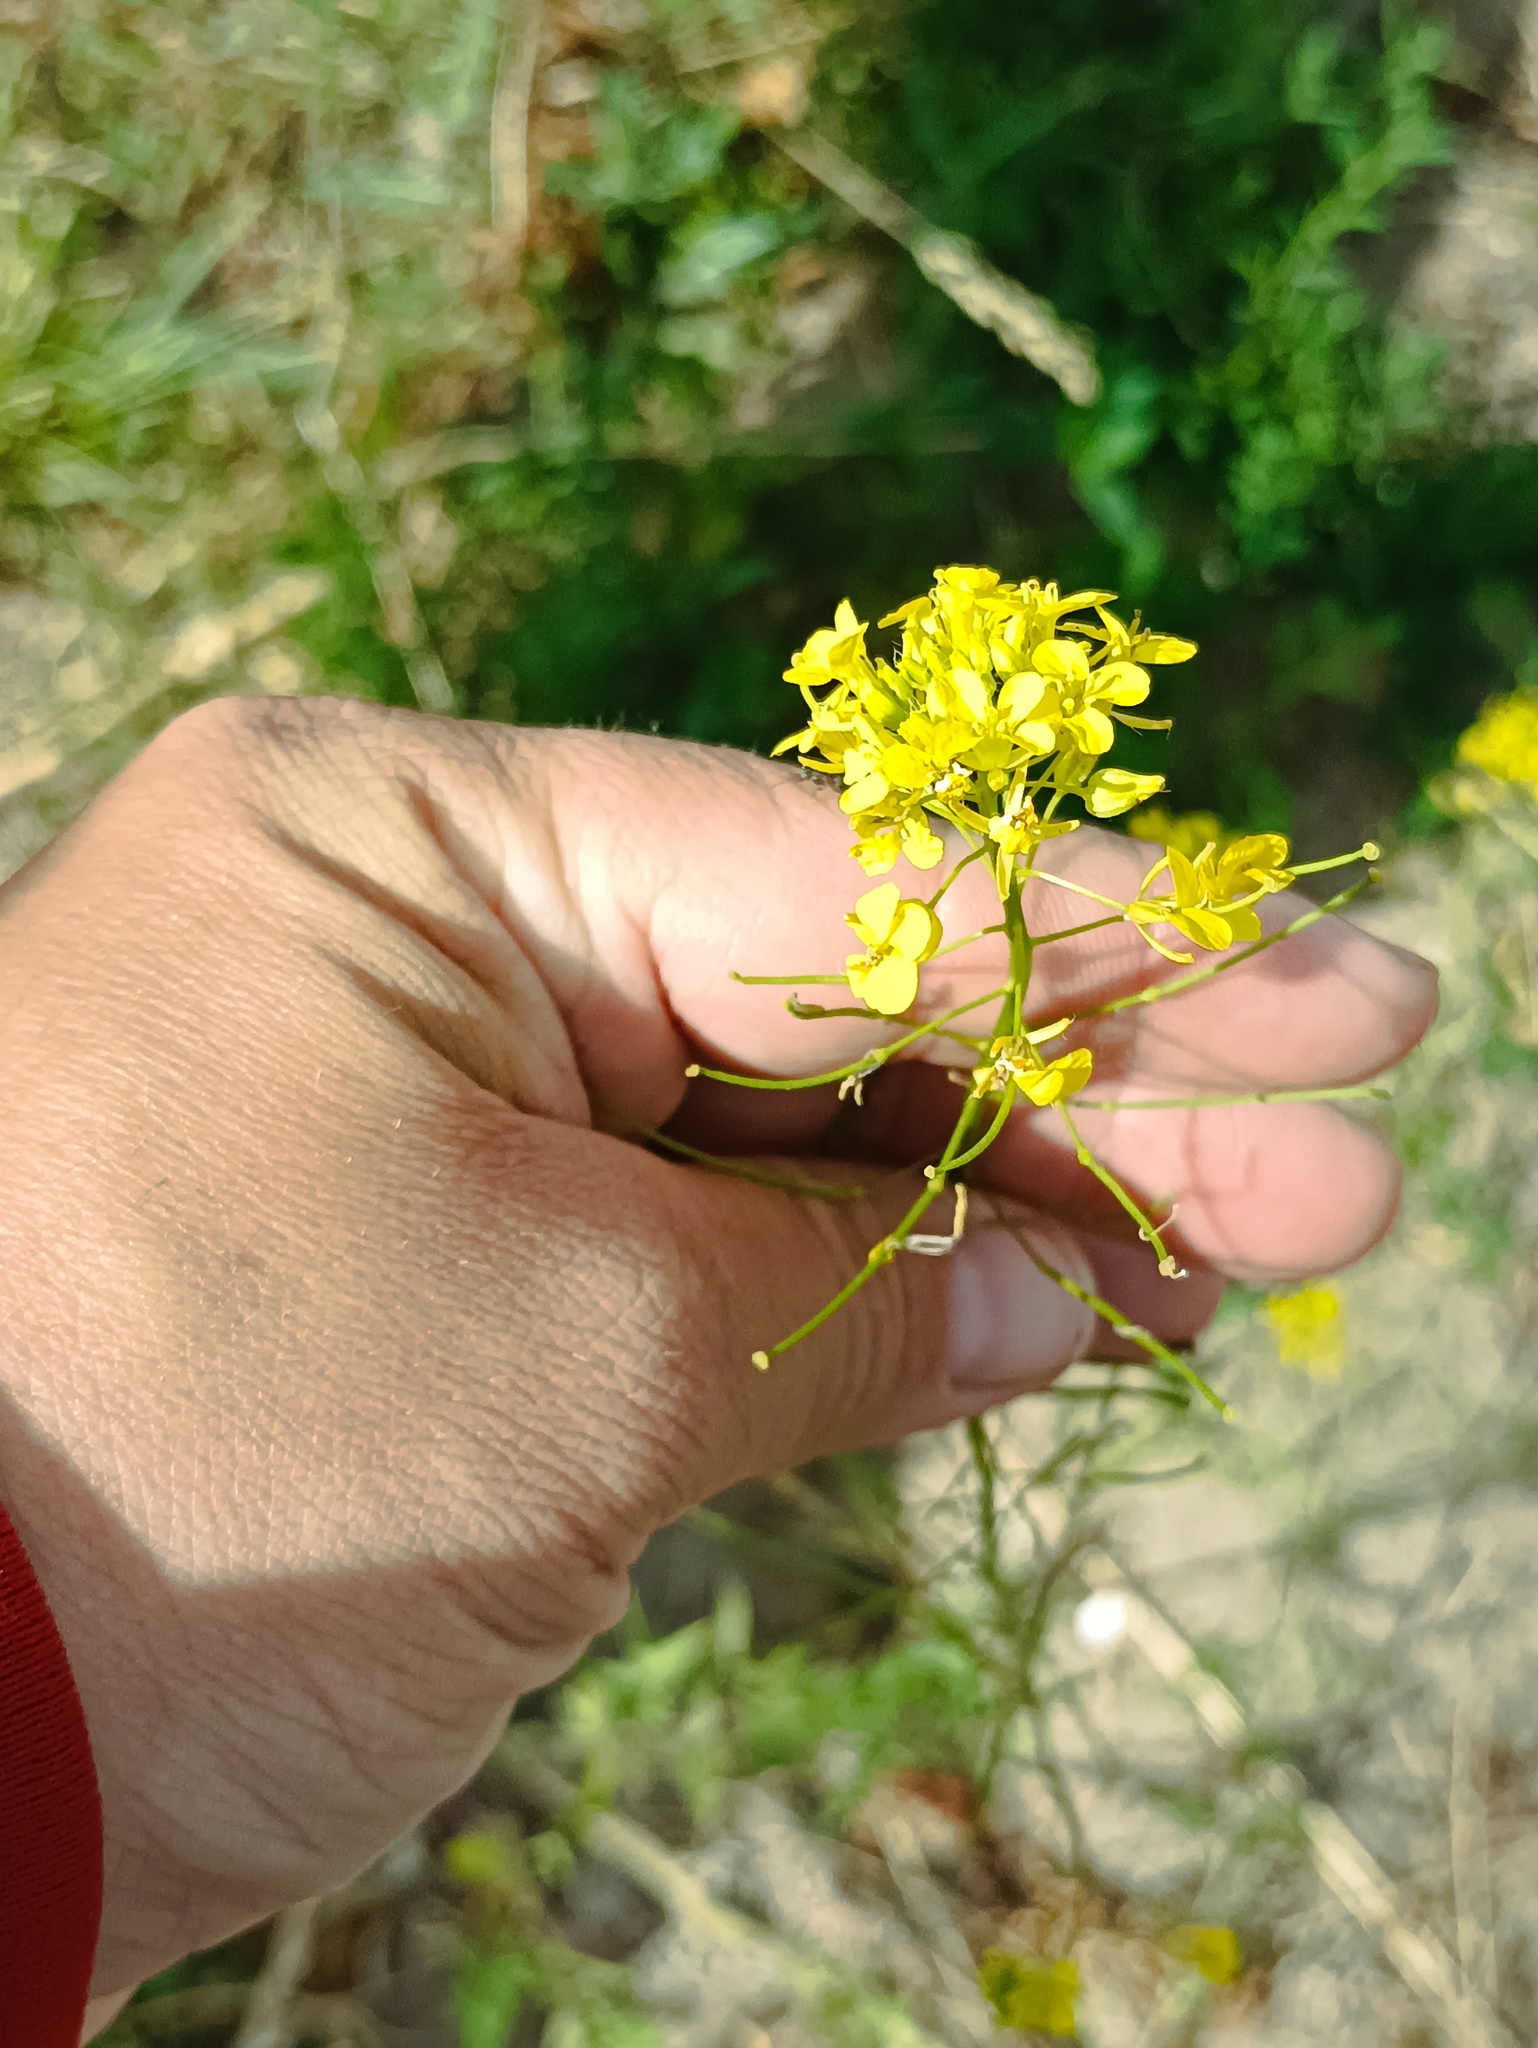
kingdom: Plantae
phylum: Tracheophyta
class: Magnoliopsida
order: Brassicales
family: Brassicaceae
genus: Sisymbrium
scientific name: Sisymbrium loeselii
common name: False london-rocket
